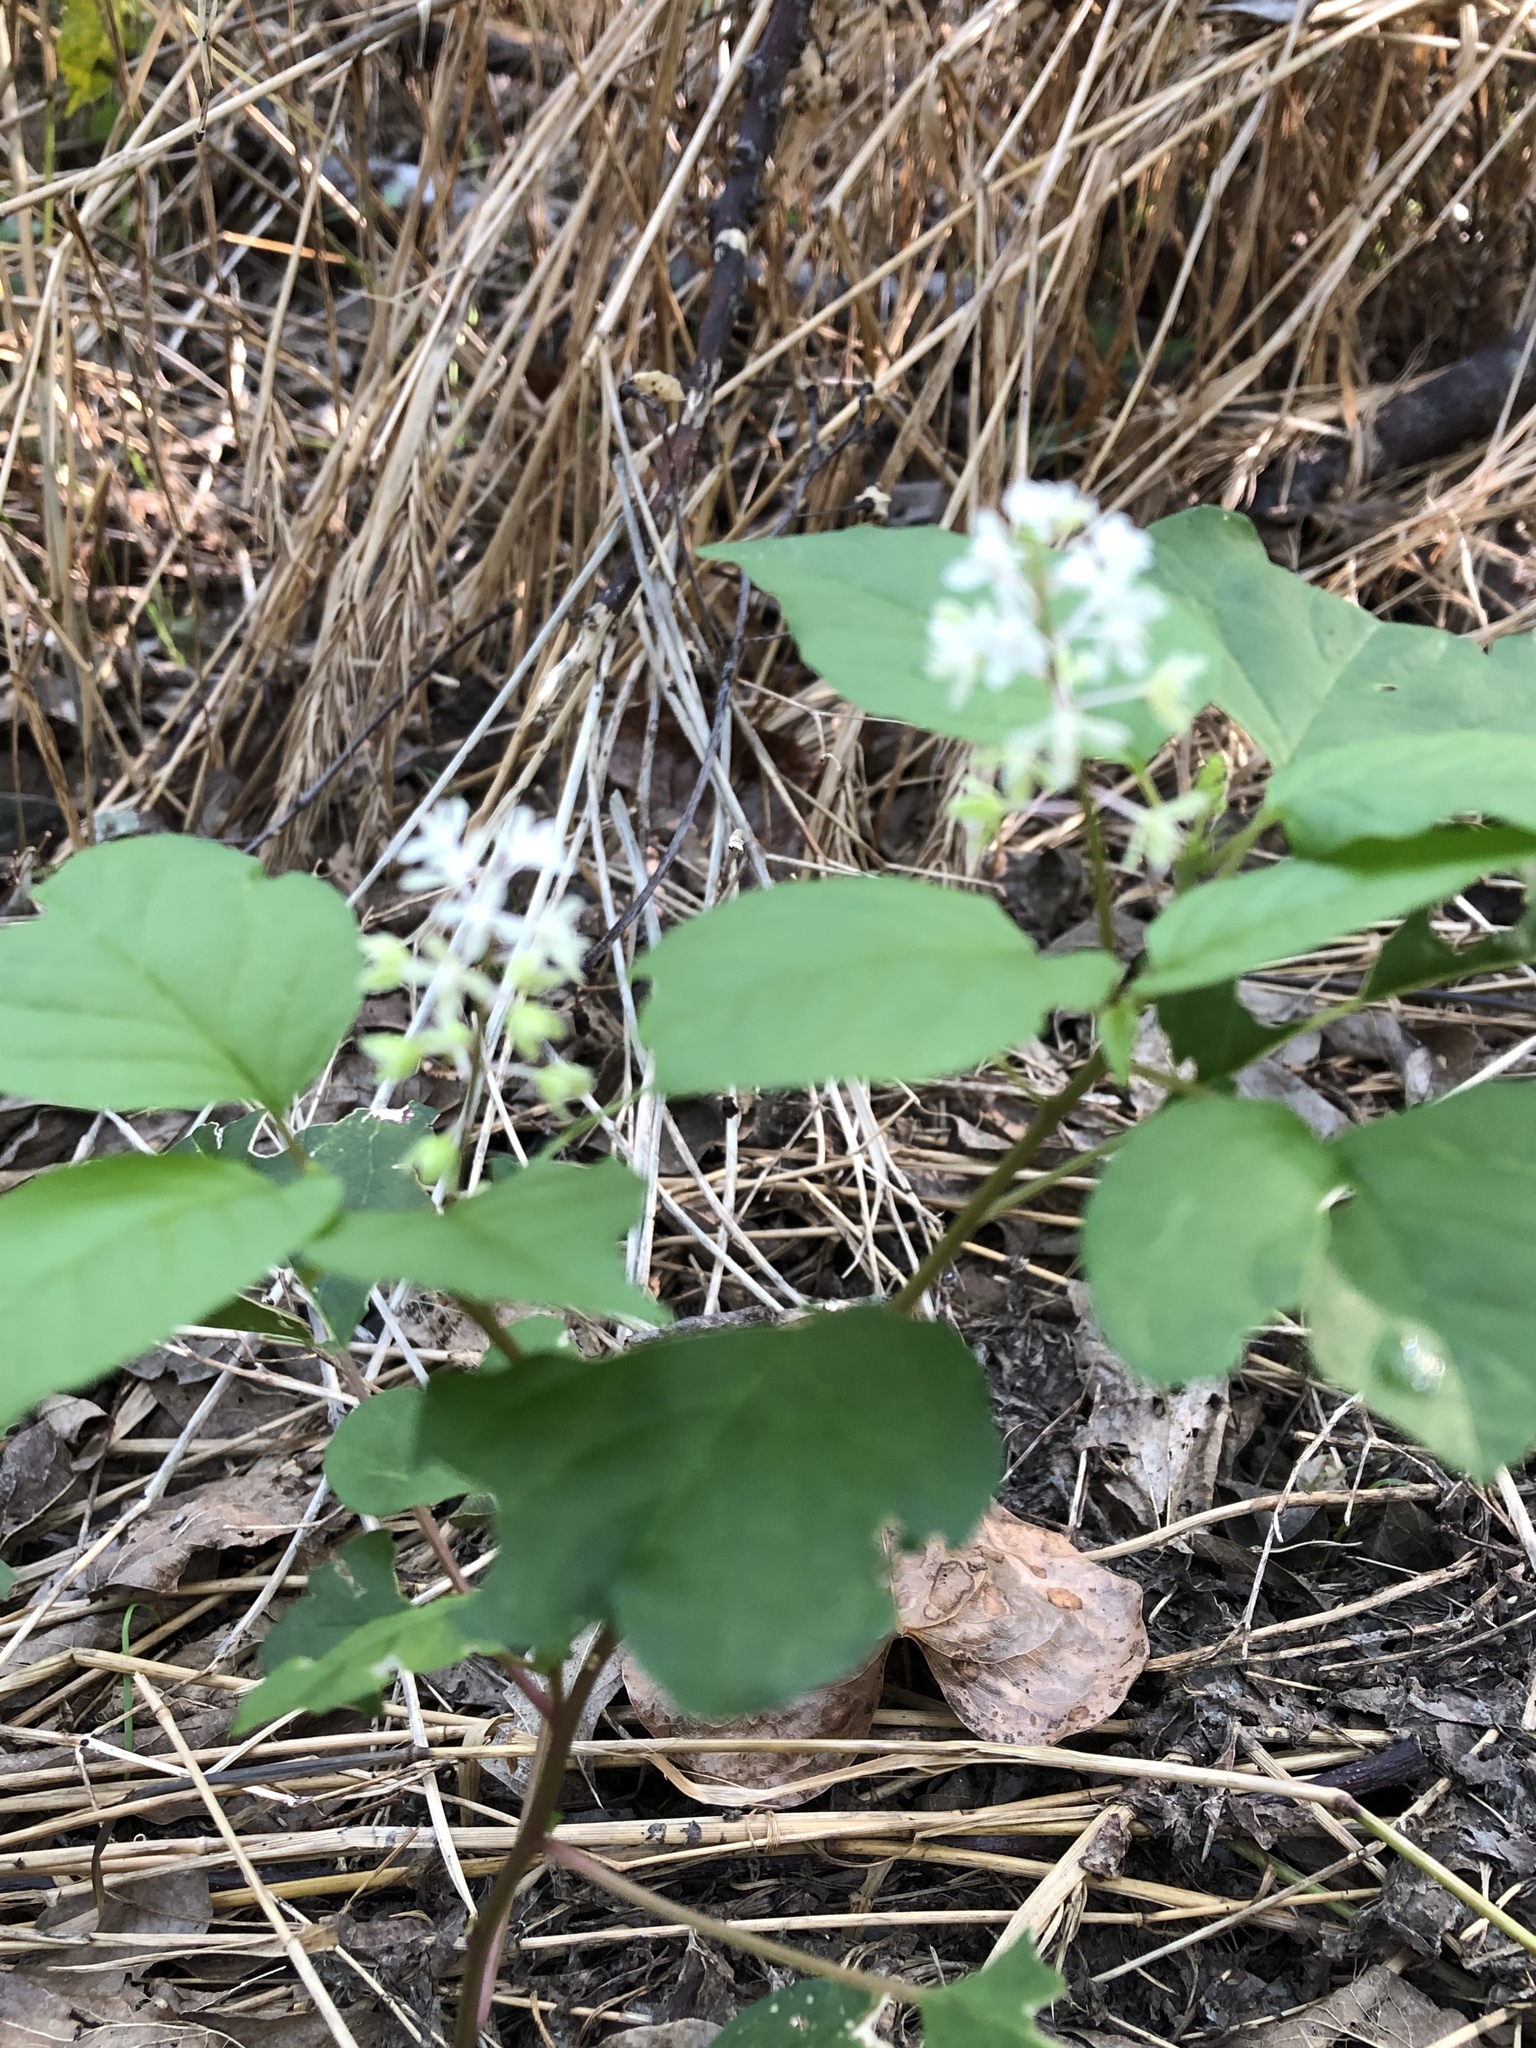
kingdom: Plantae
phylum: Tracheophyta
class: Magnoliopsida
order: Caryophyllales
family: Phytolaccaceae
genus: Rivina
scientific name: Rivina humilis
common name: Rougeplant
